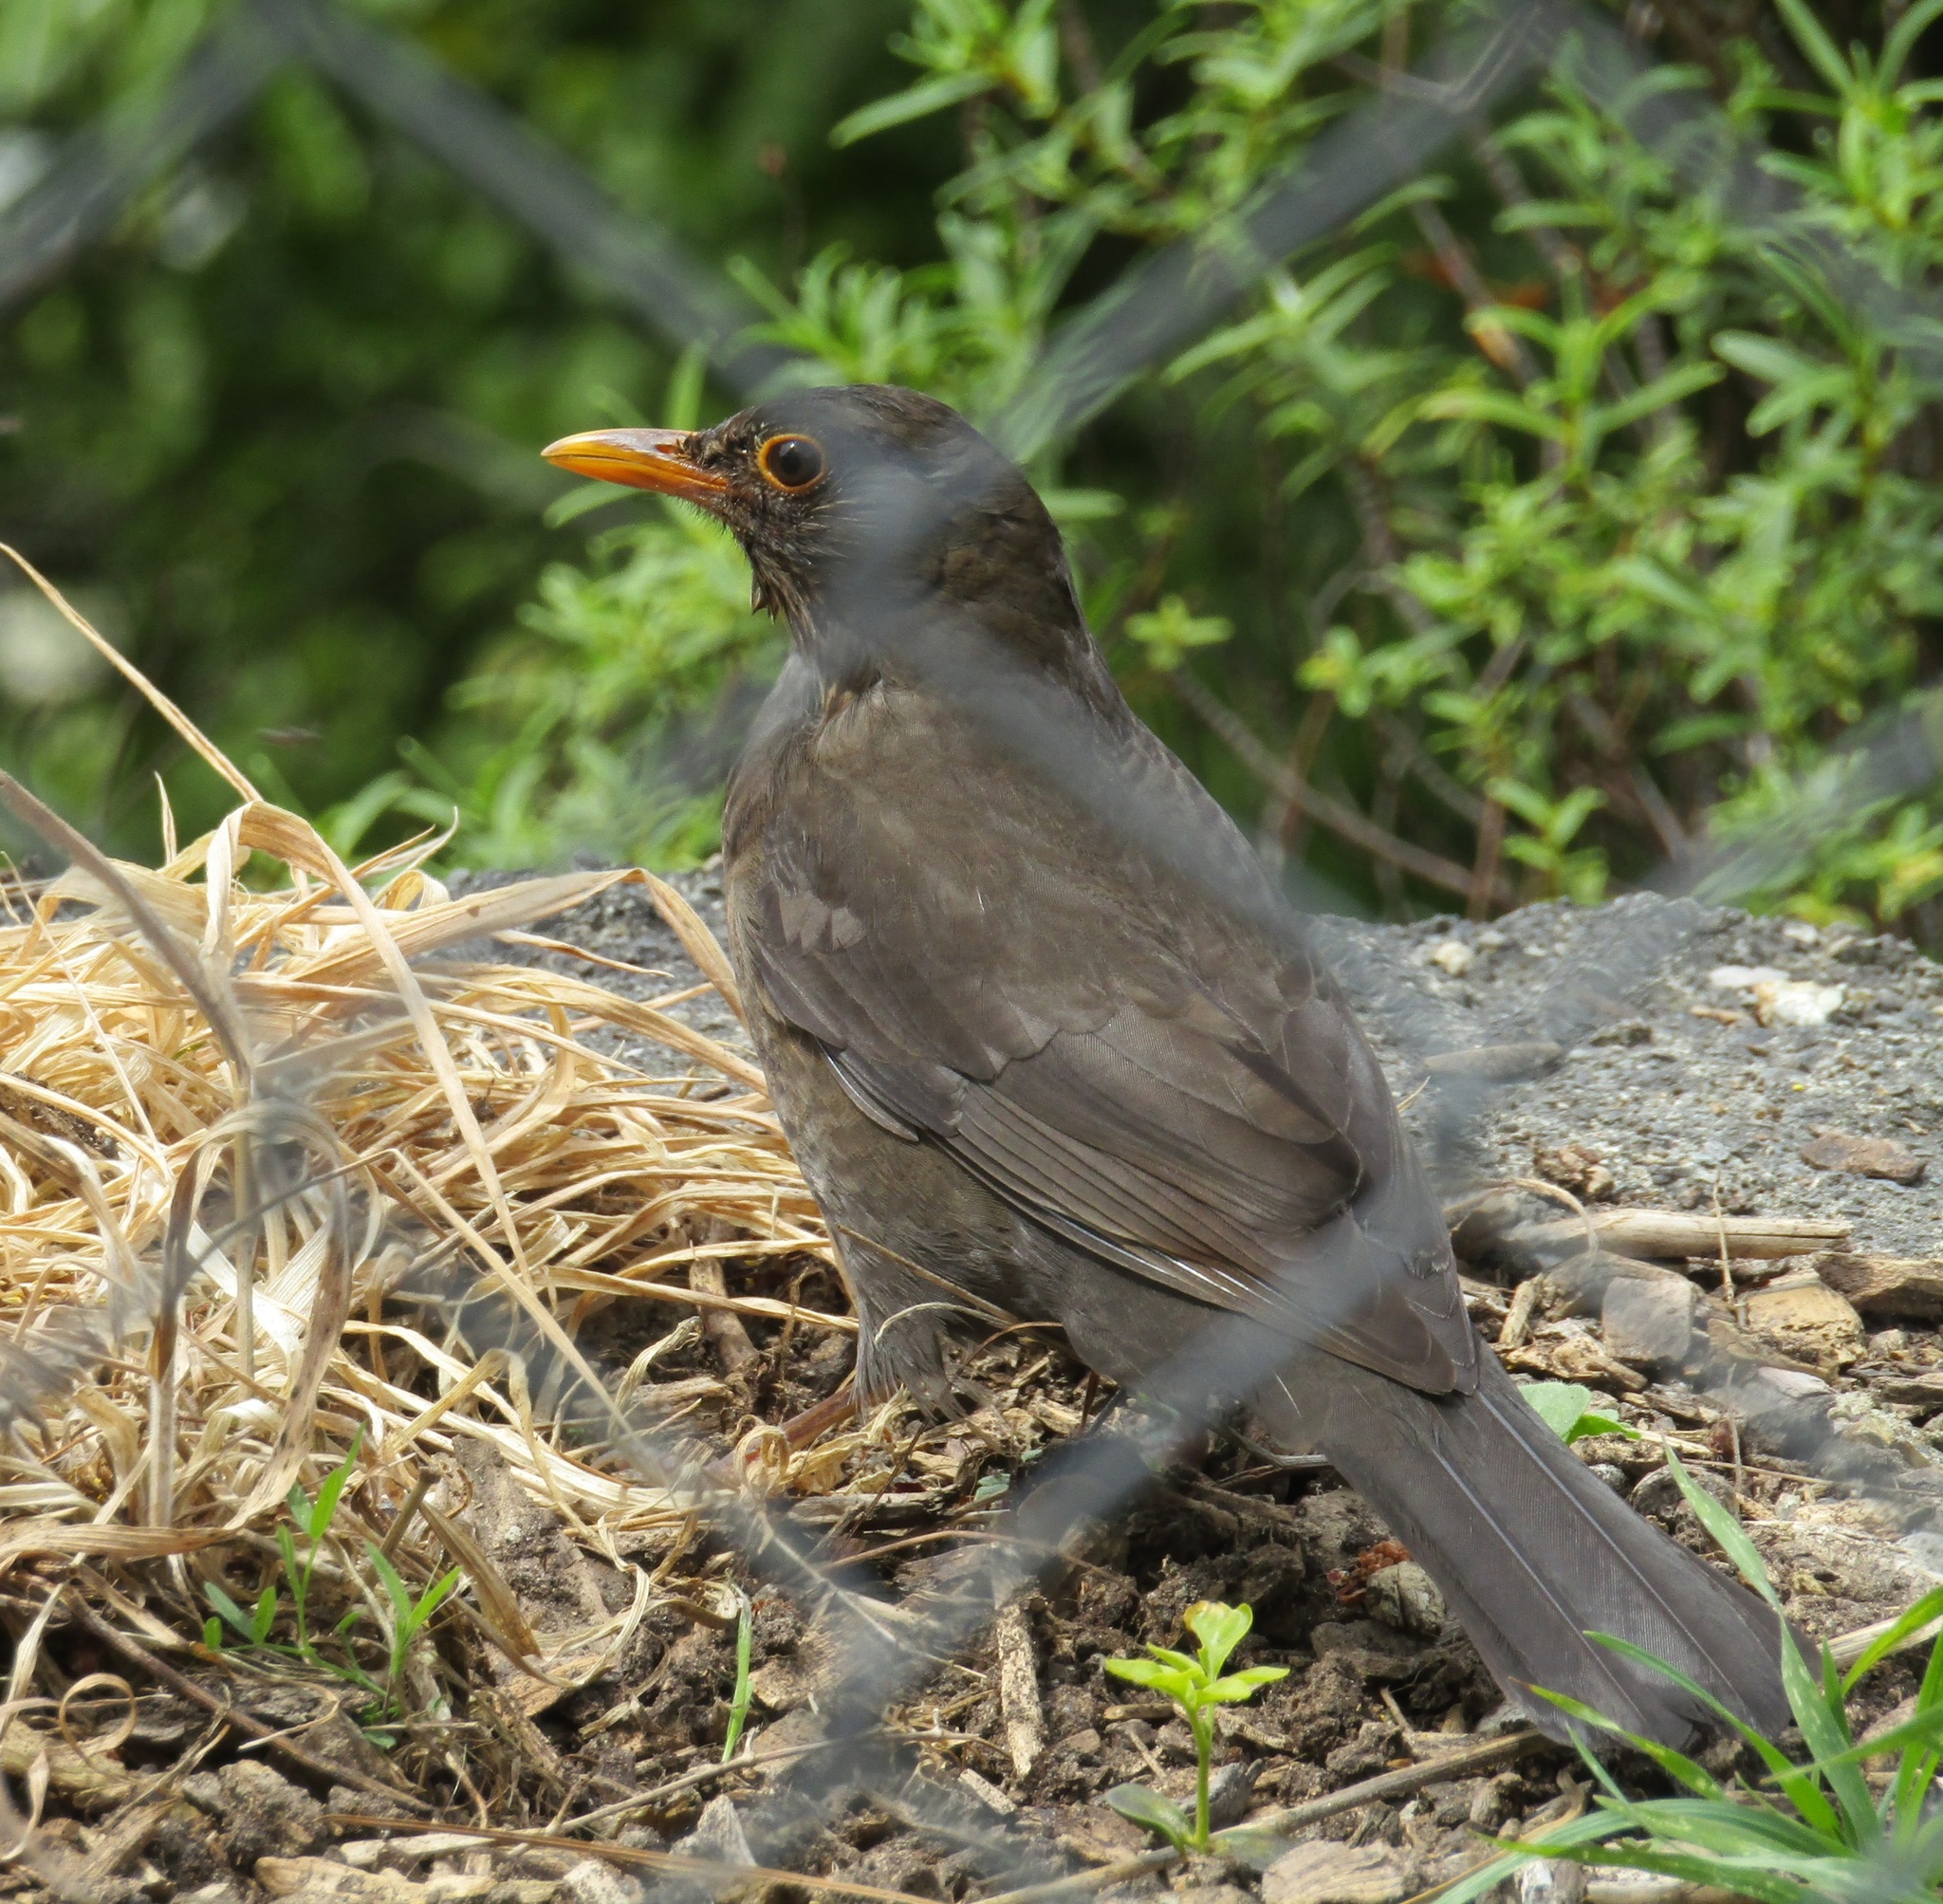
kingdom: Animalia
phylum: Chordata
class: Aves
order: Passeriformes
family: Turdidae
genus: Turdus
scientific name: Turdus merula
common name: Common blackbird
